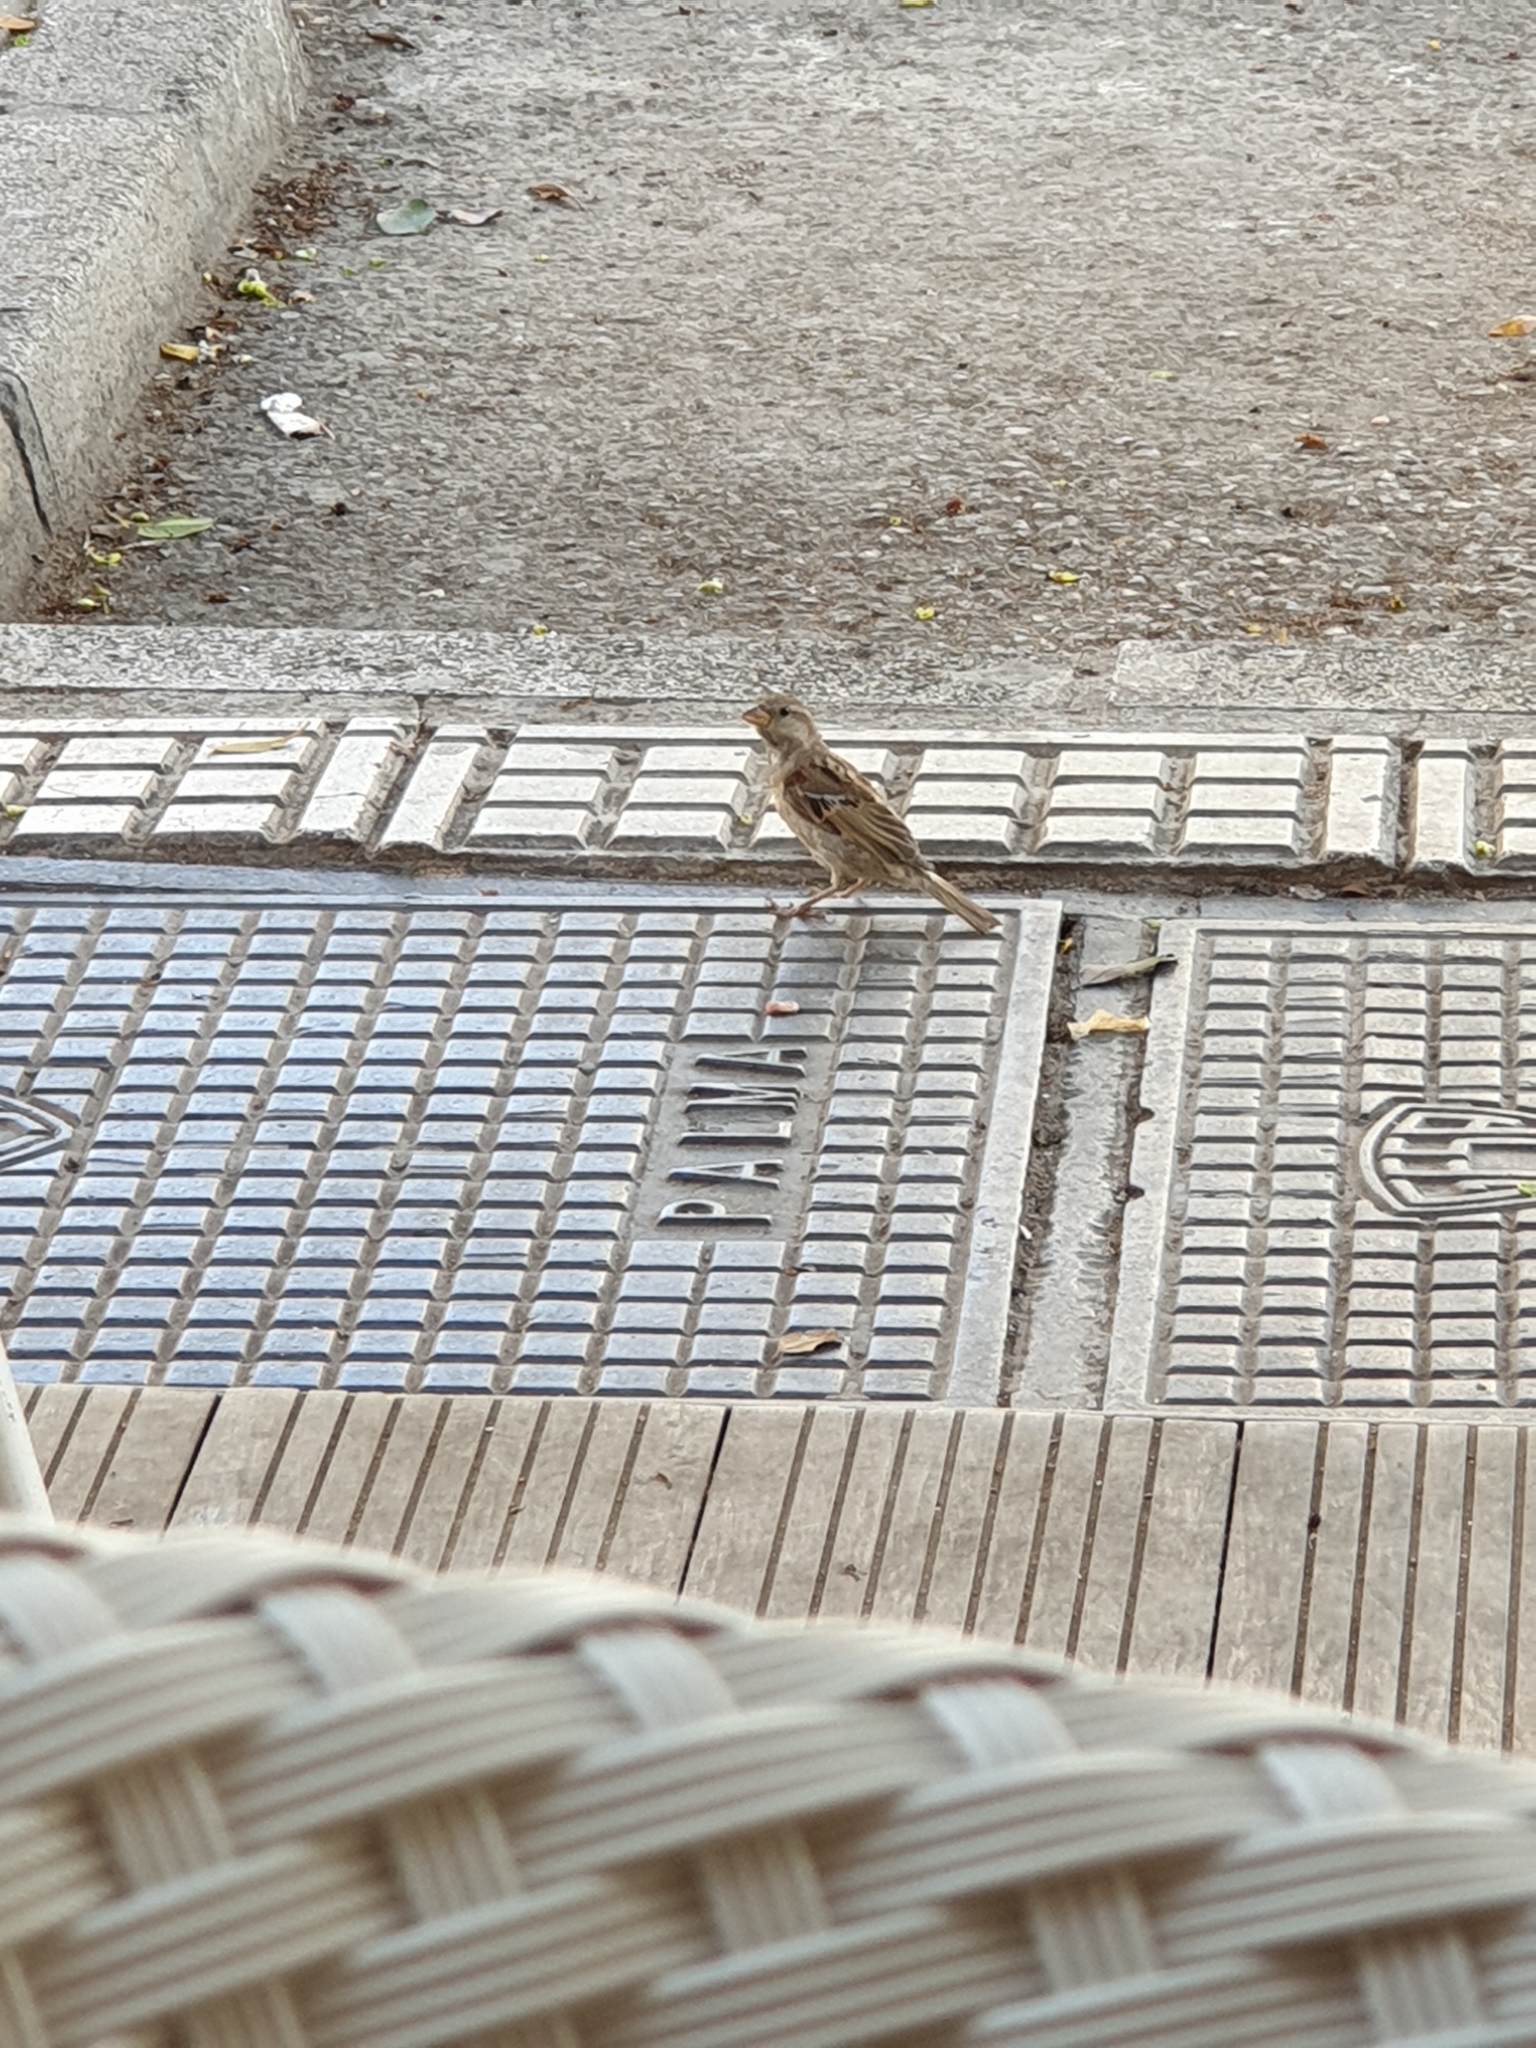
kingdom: Animalia
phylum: Chordata
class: Aves
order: Passeriformes
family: Passeridae
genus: Passer
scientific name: Passer domesticus
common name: House sparrow
